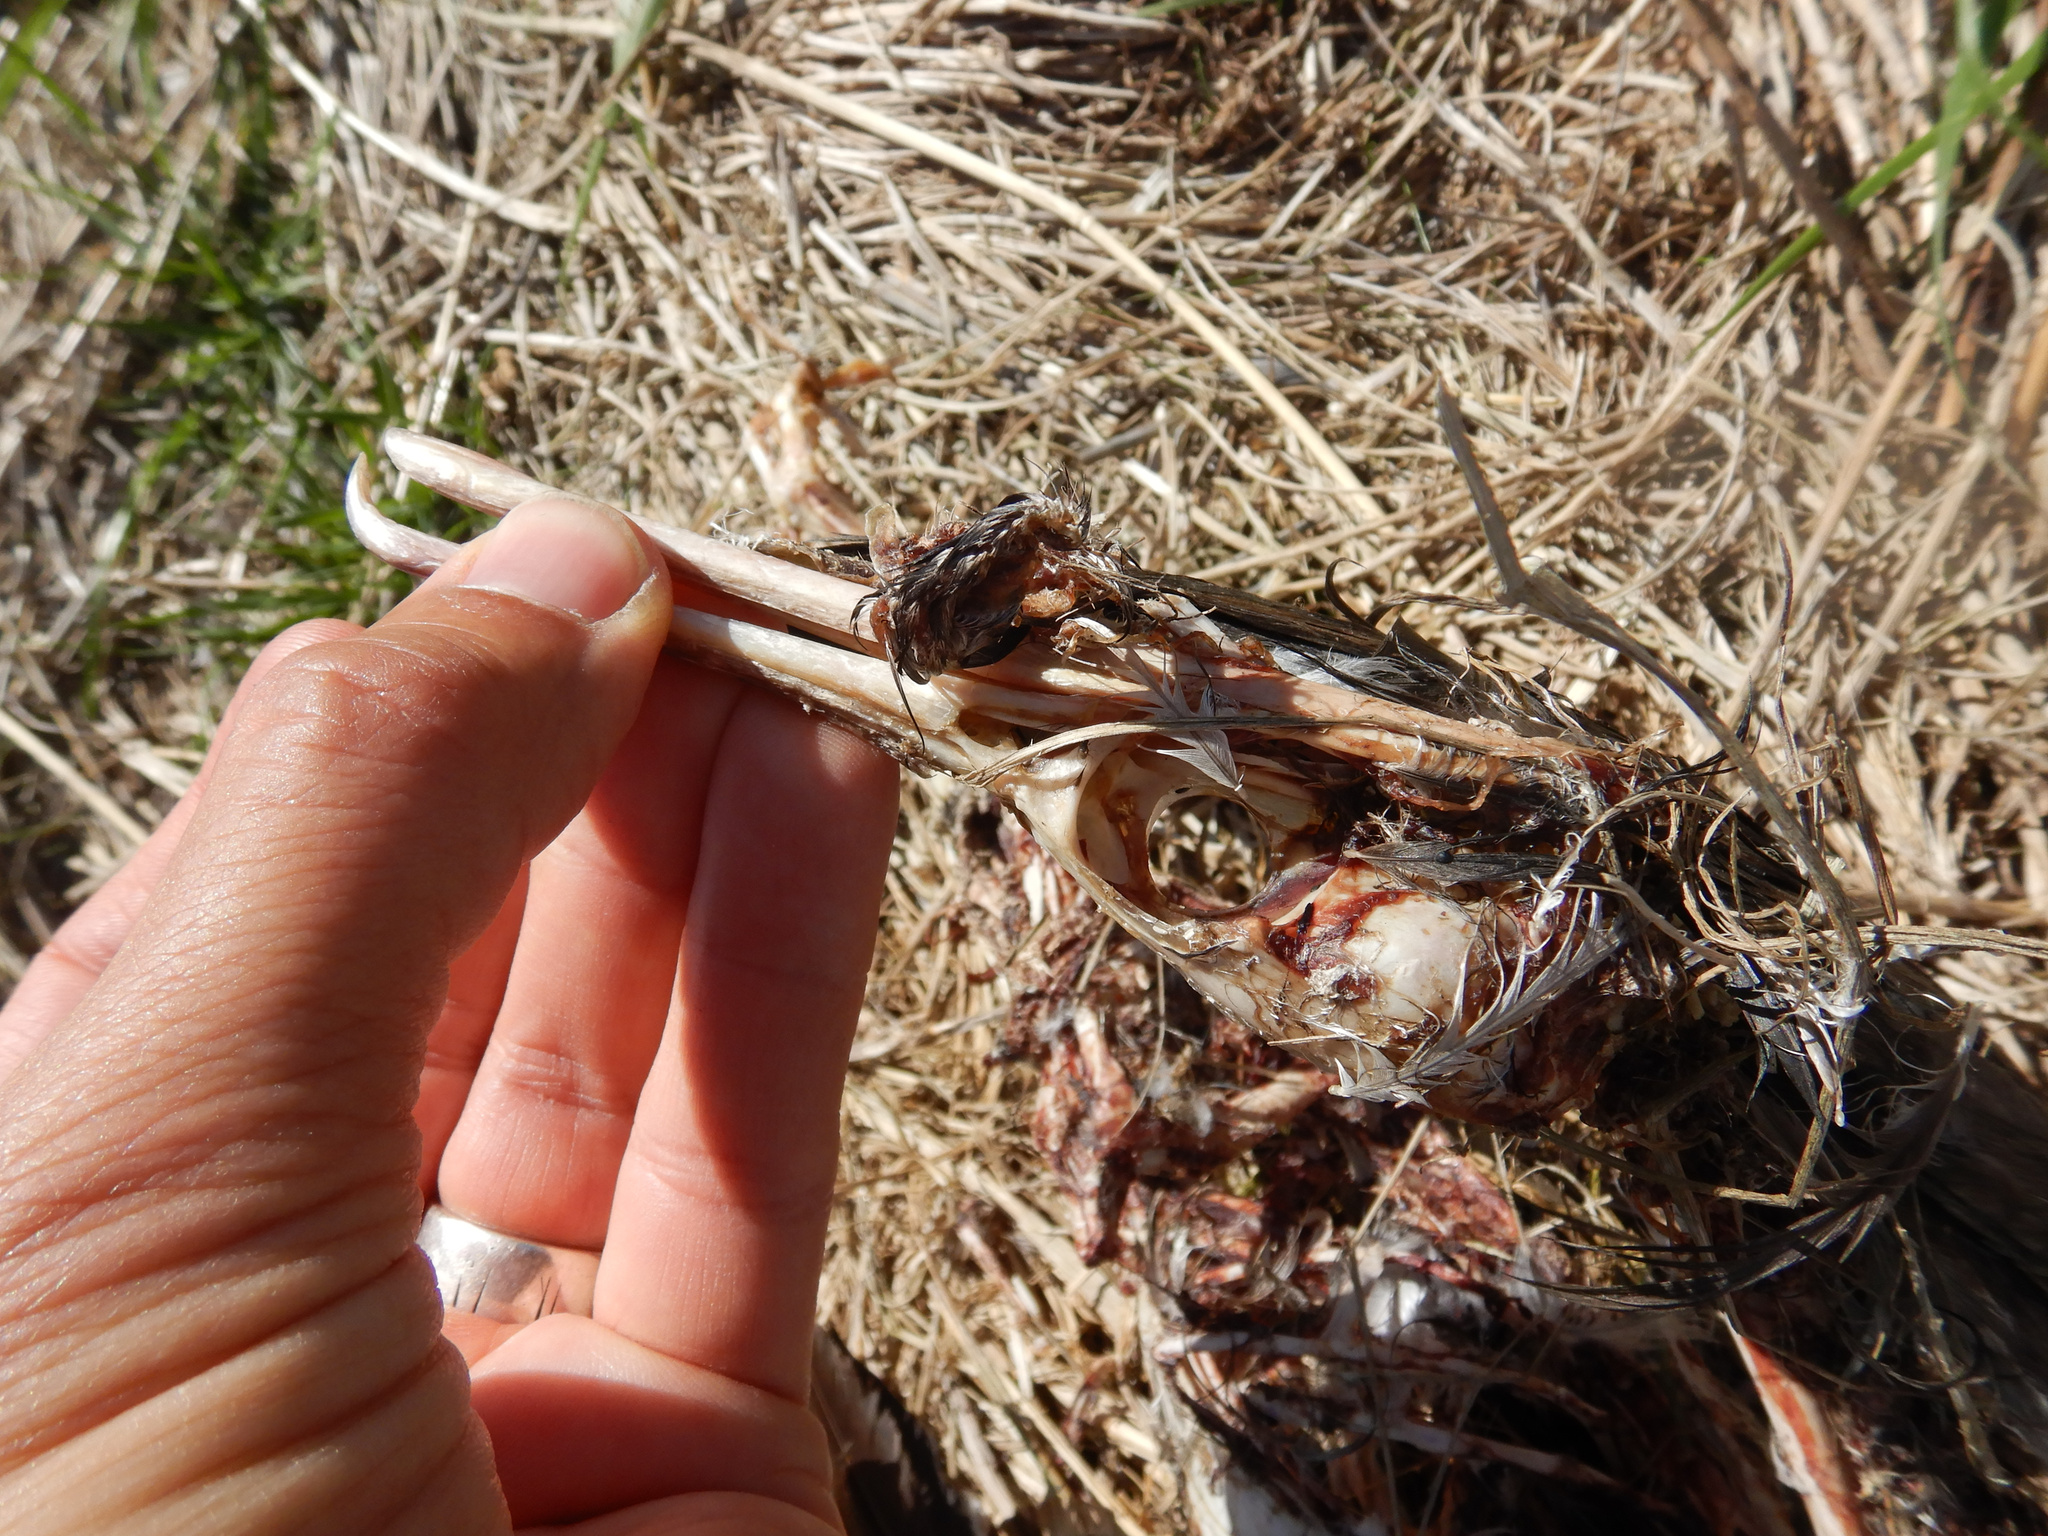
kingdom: Animalia
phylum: Chordata
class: Aves
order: Suliformes
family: Phalacrocoracidae
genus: Phalacrocorax
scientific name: Phalacrocorax punctatus
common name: Spotted shag
